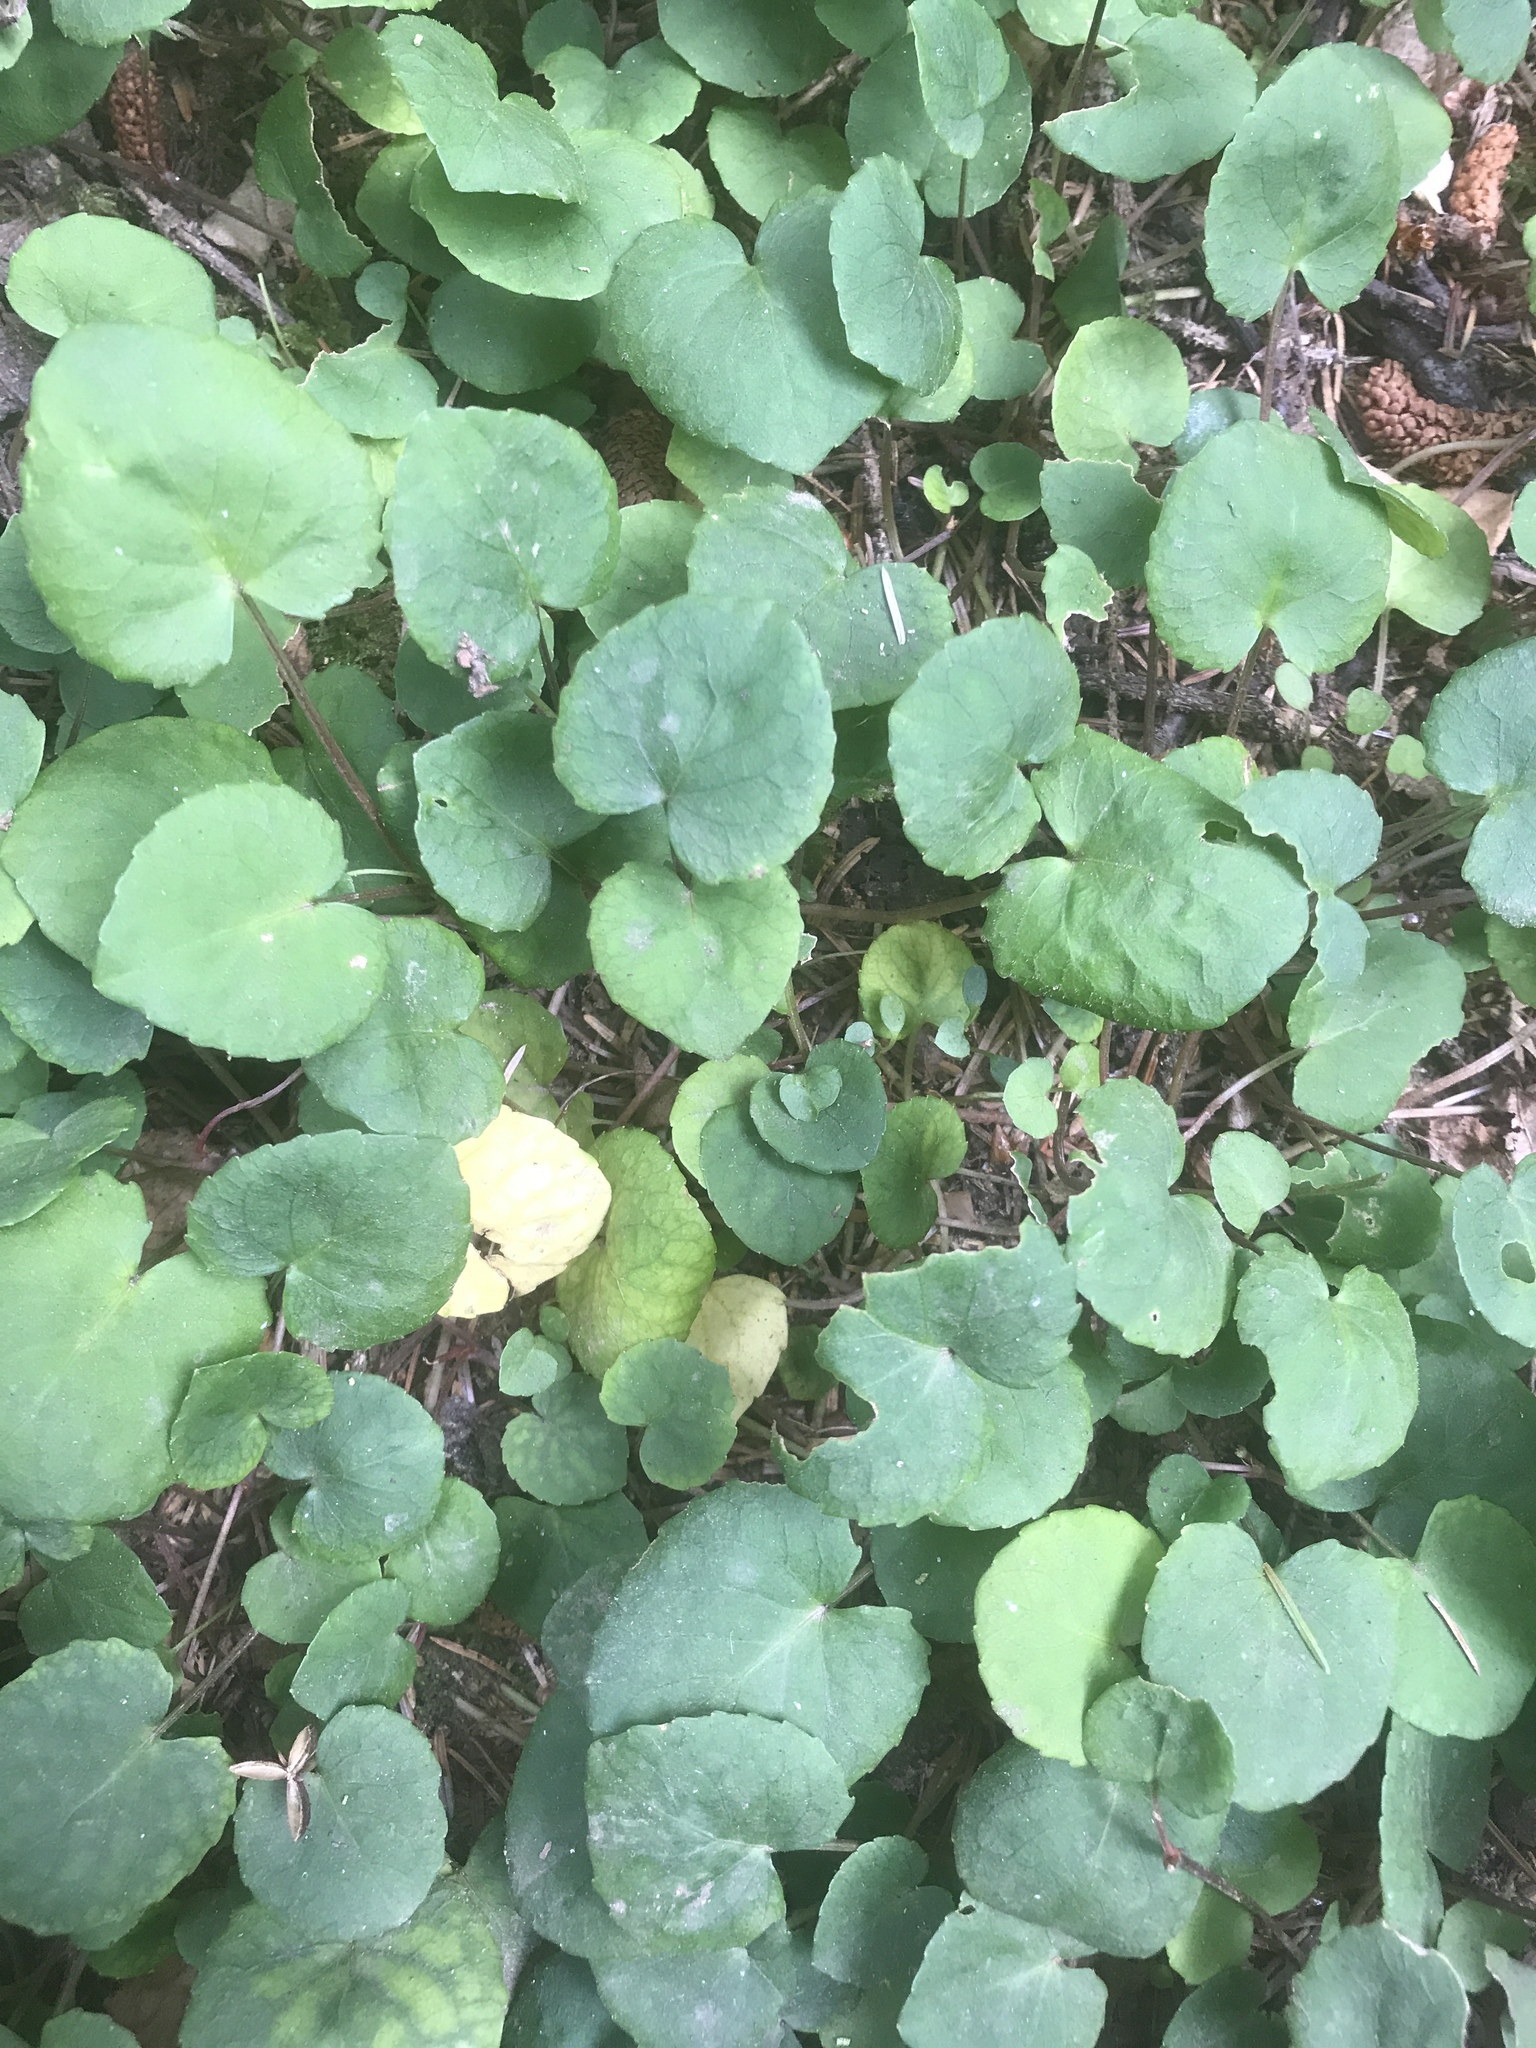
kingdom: Plantae
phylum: Tracheophyta
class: Magnoliopsida
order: Malpighiales
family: Violaceae
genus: Viola
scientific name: Viola sempervirens
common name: Evergreen violet
